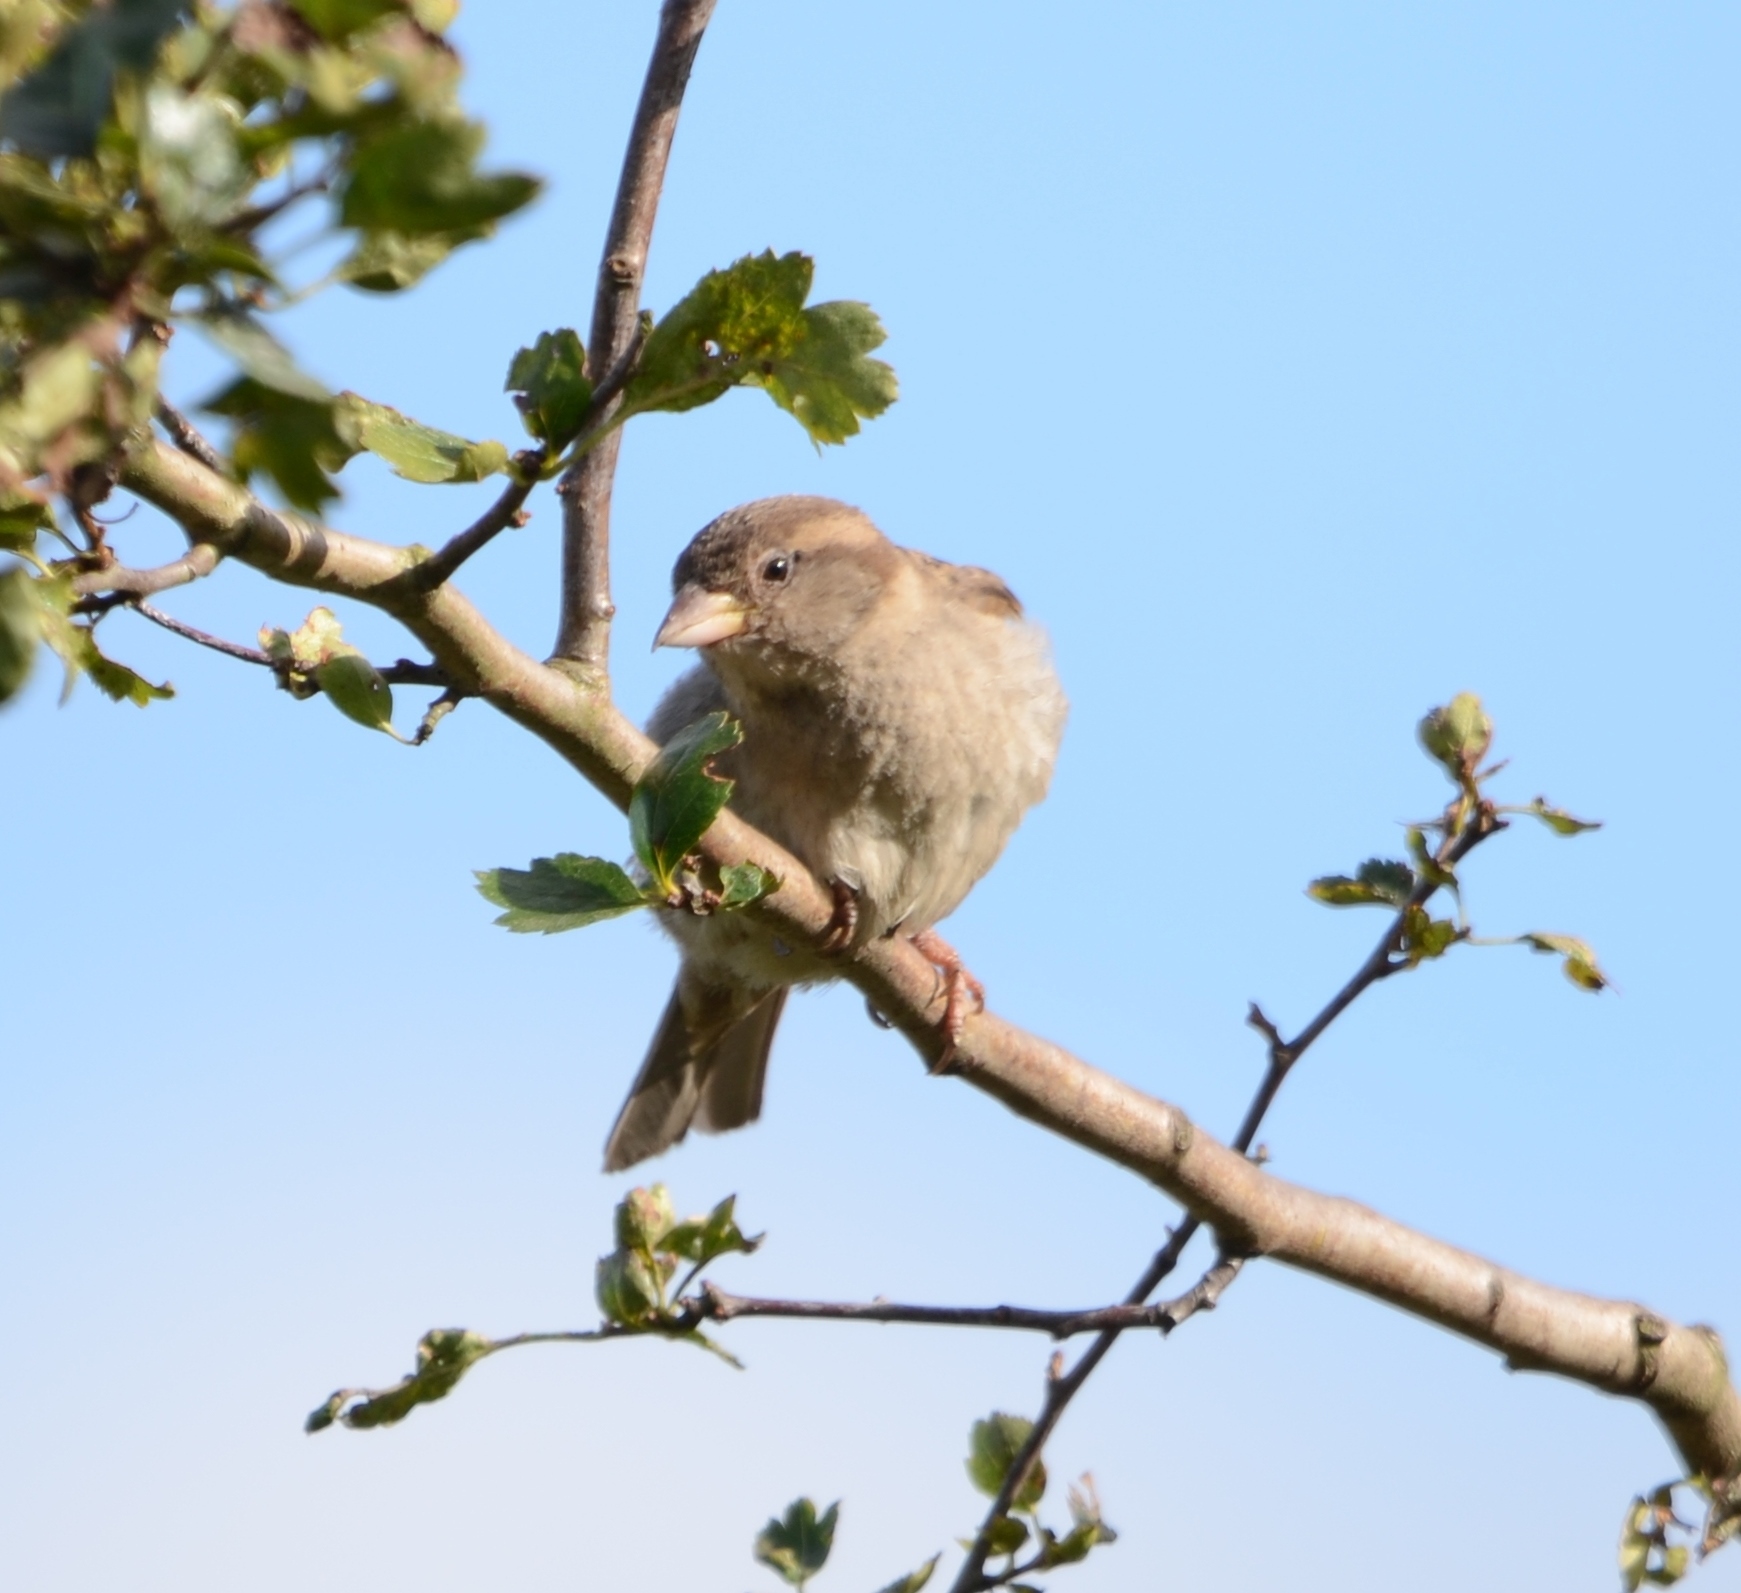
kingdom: Animalia
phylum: Chordata
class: Aves
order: Passeriformes
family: Passeridae
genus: Passer
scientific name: Passer domesticus
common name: House sparrow
